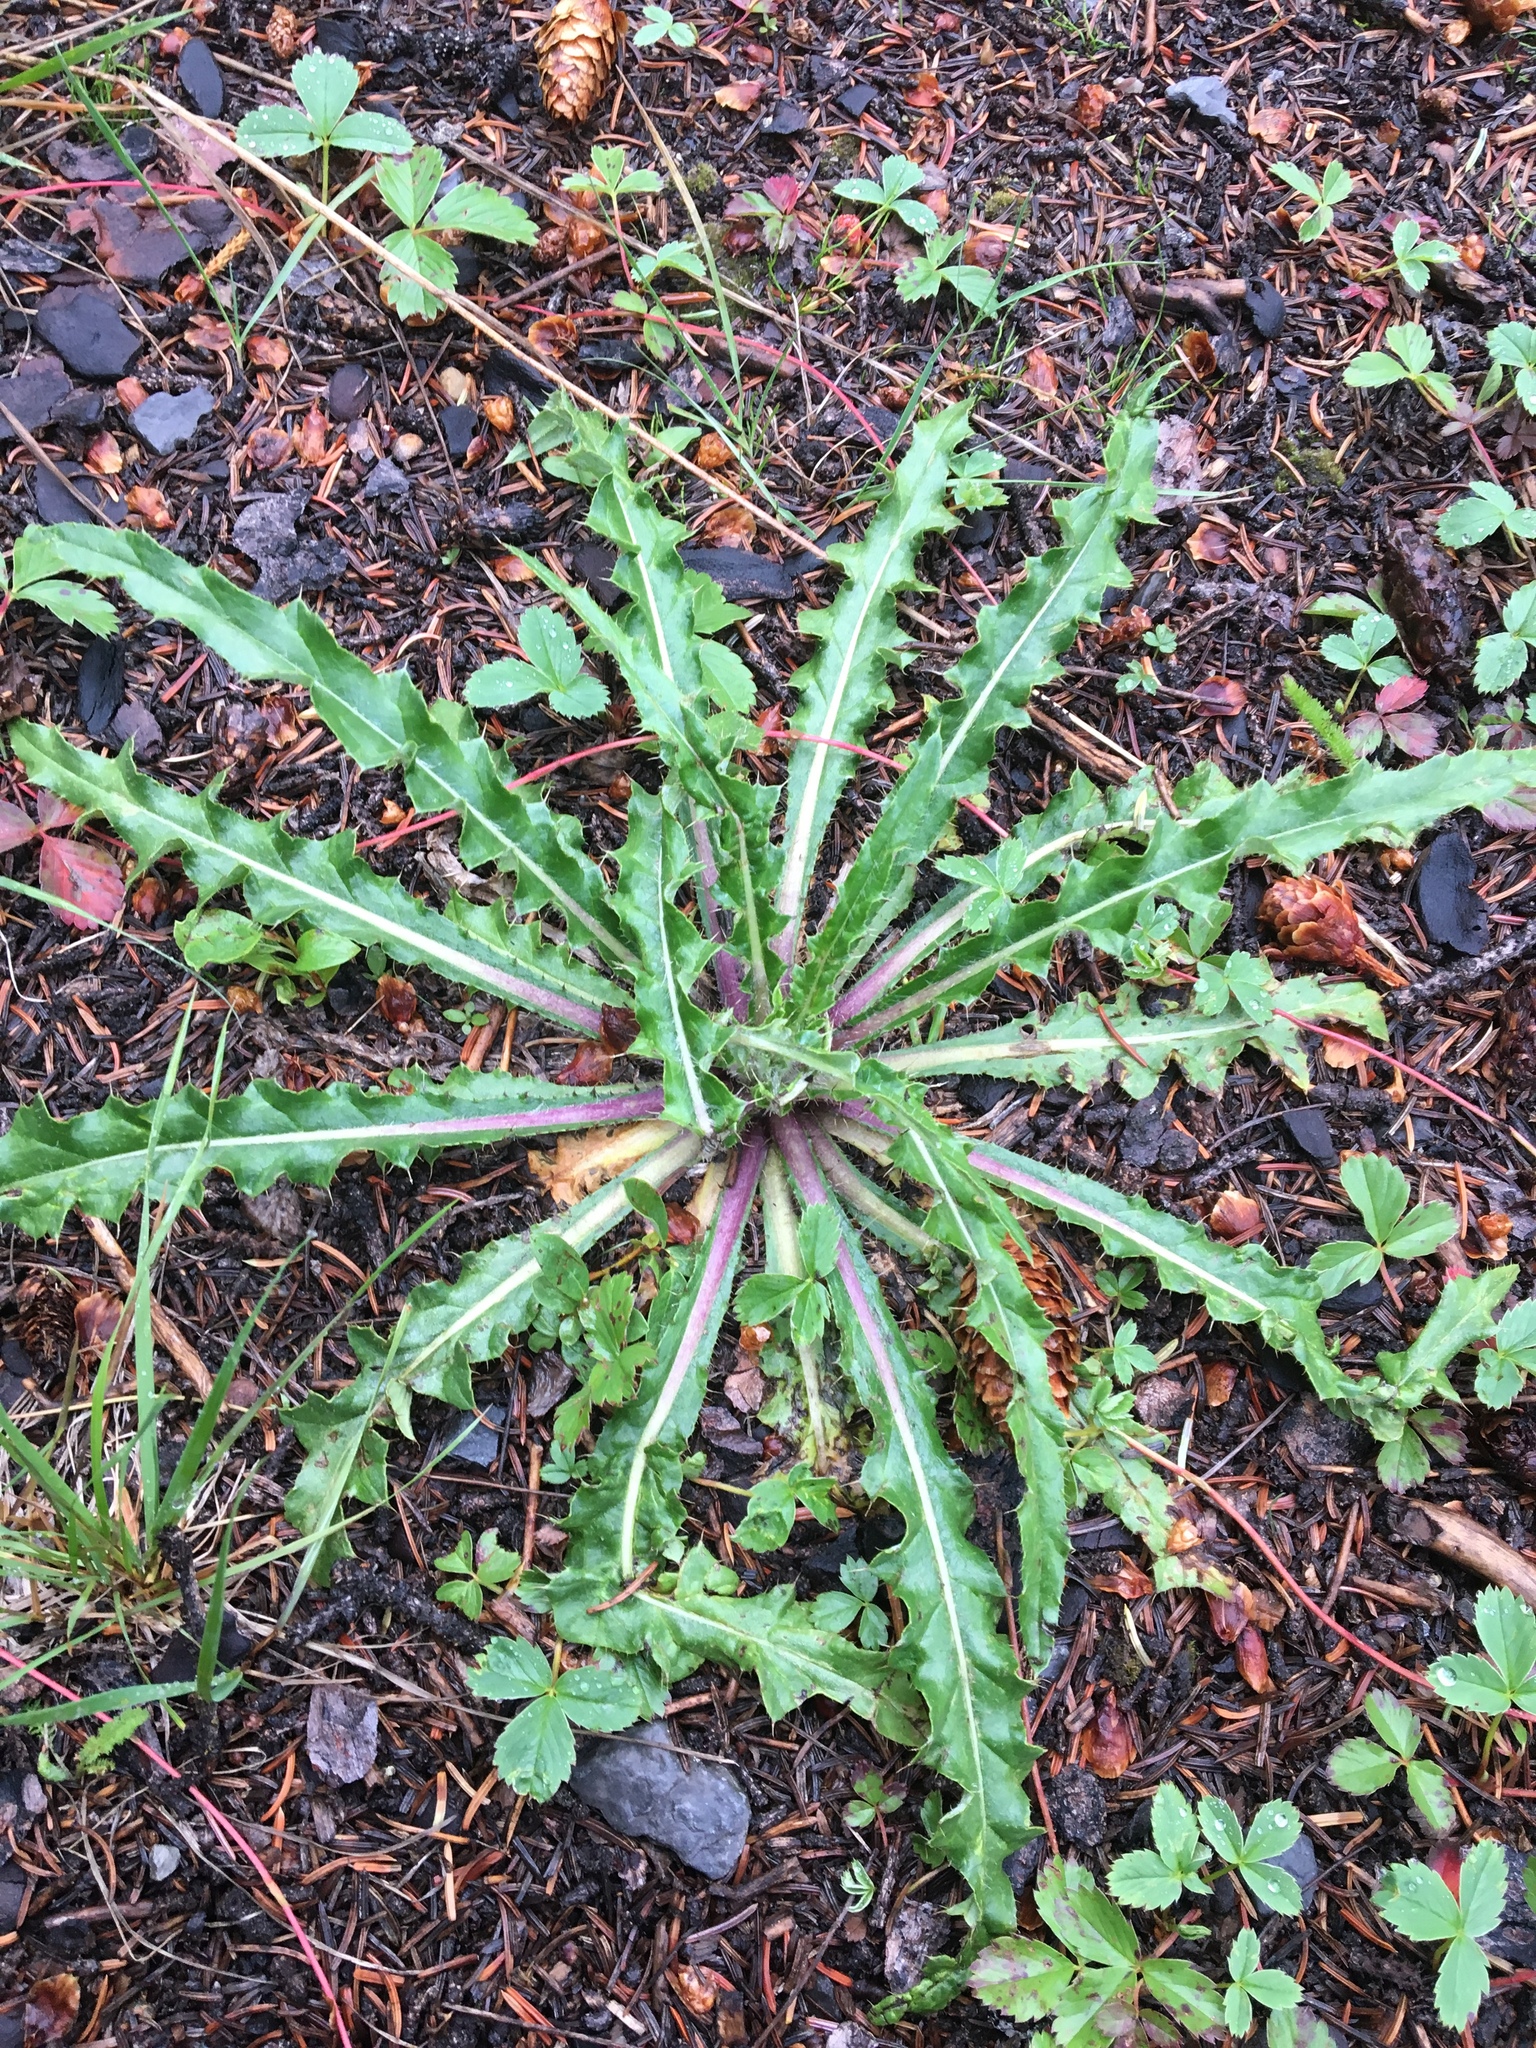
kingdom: Plantae
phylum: Tracheophyta
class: Magnoliopsida
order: Asterales
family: Asteraceae
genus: Cirsium
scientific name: Cirsium hookerianum
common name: Hooker's thistle
